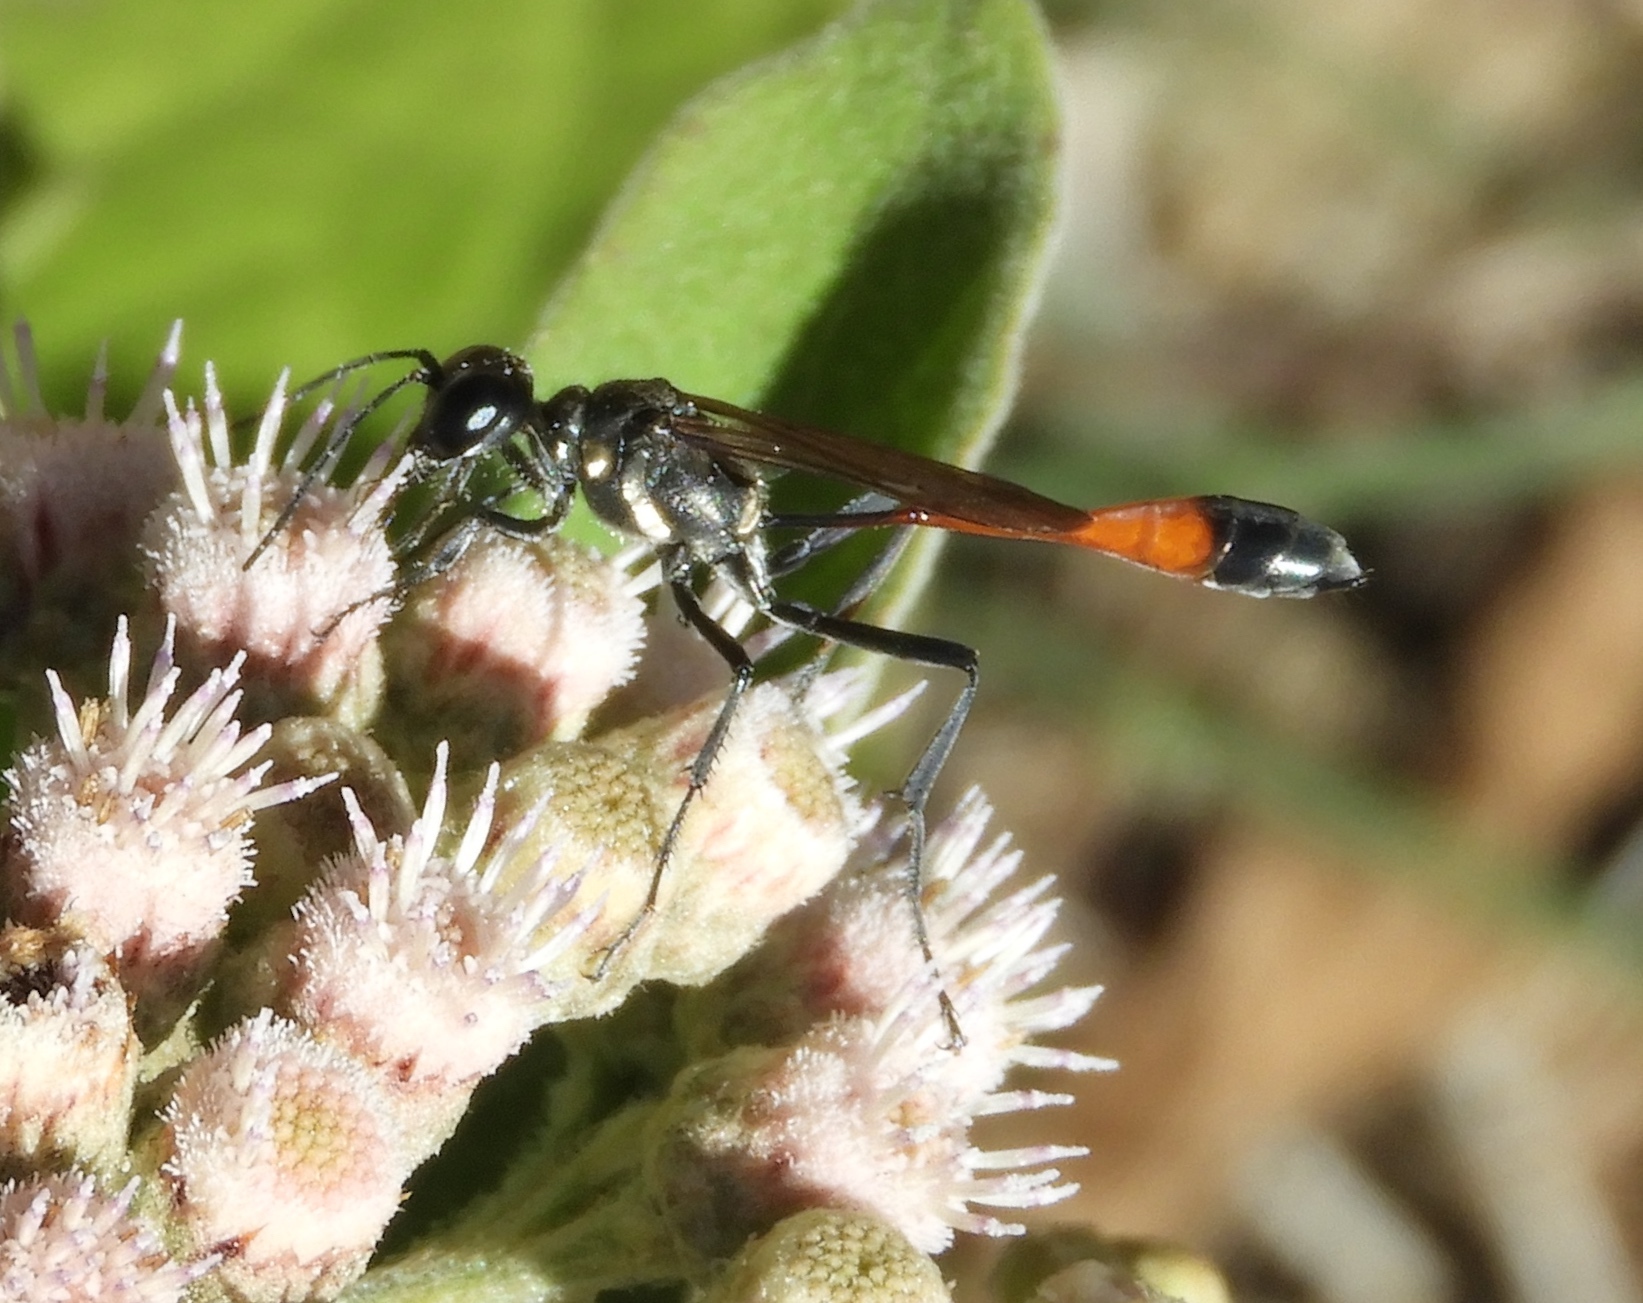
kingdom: Animalia
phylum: Arthropoda
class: Insecta
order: Hymenoptera
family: Sphecidae
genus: Ammophila
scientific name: Ammophila
